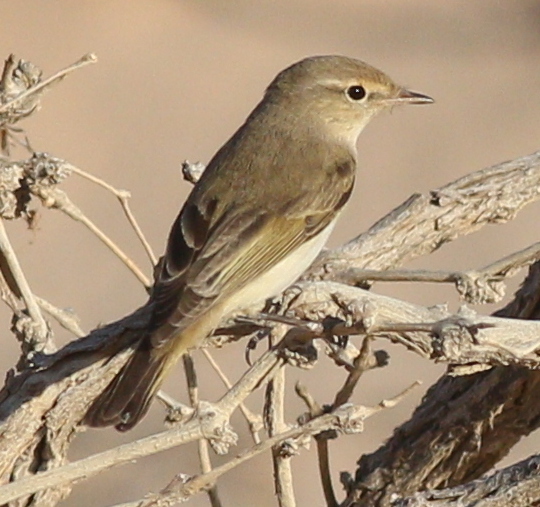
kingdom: Animalia
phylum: Chordata
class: Aves
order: Passeriformes
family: Phylloscopidae
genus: Phylloscopus
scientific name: Phylloscopus orientalis
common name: Eastern bonelli's warbler
